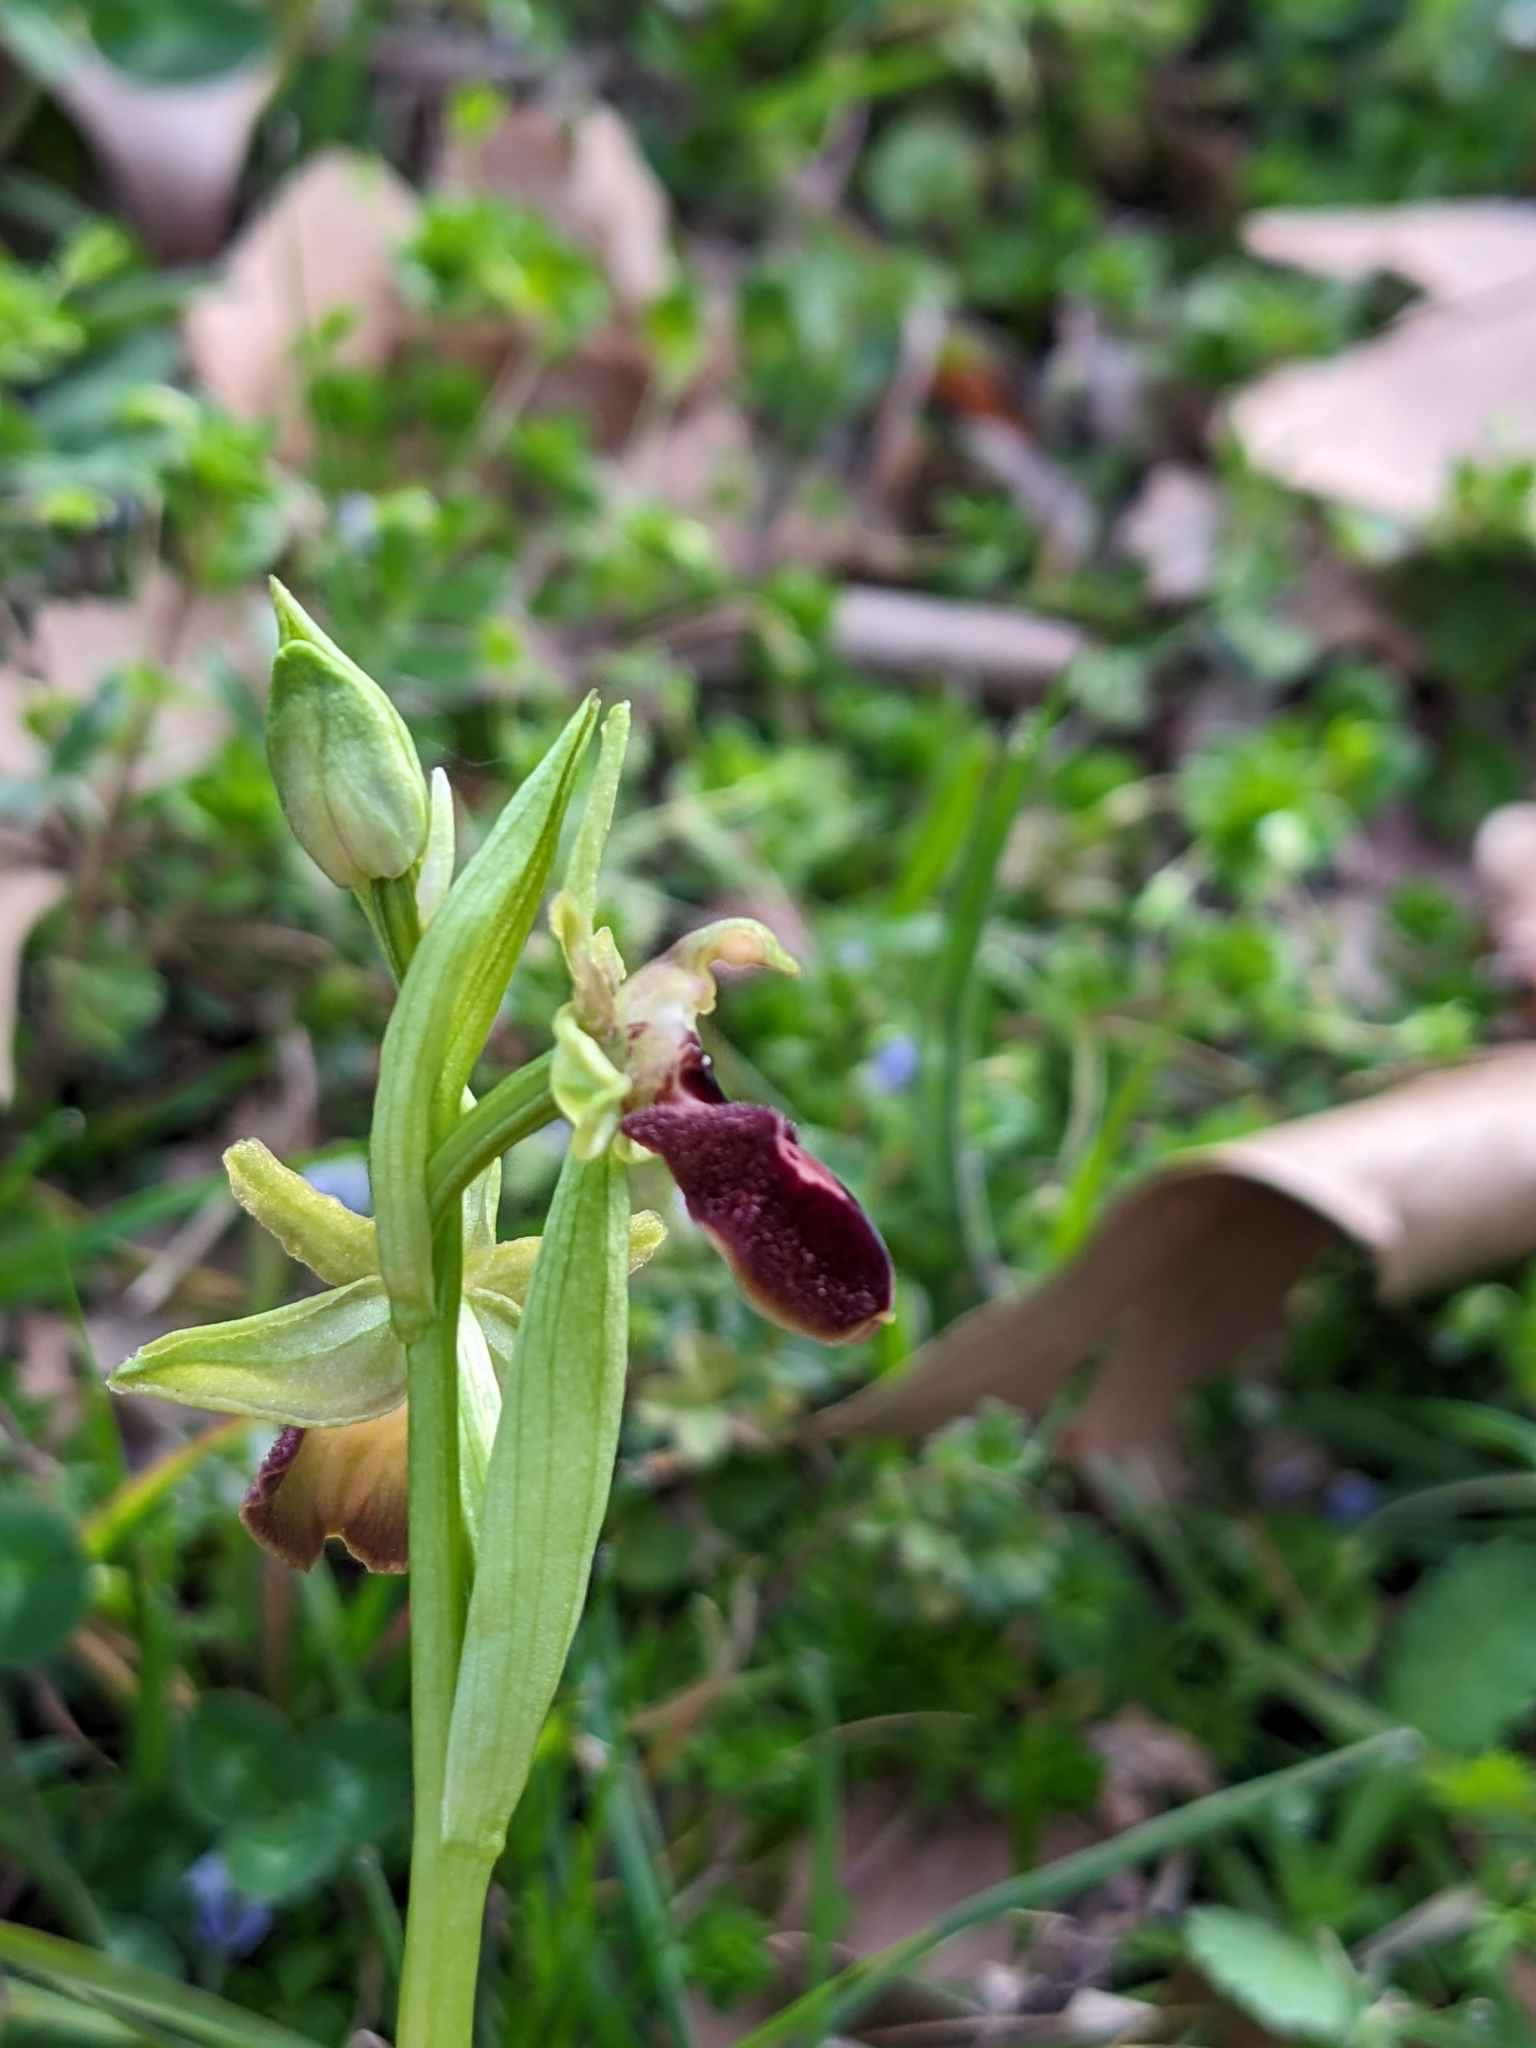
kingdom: Plantae
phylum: Tracheophyta
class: Liliopsida
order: Asparagales
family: Orchidaceae
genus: Ophrys
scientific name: Ophrys arachnitiformis
